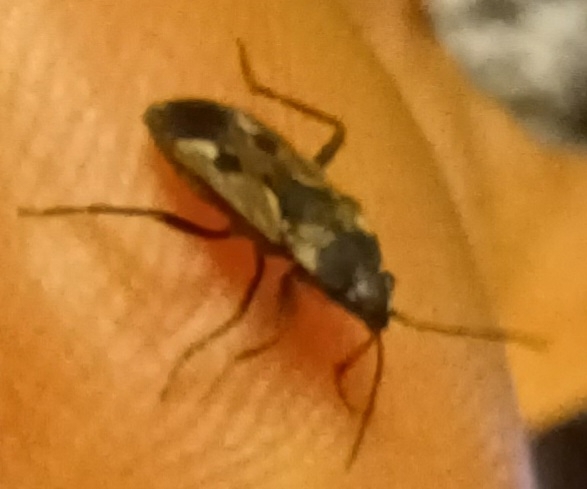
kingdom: Animalia
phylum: Arthropoda
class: Insecta
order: Hemiptera
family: Rhyparochromidae
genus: Rhyparochromus
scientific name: Rhyparochromus vulgaris
